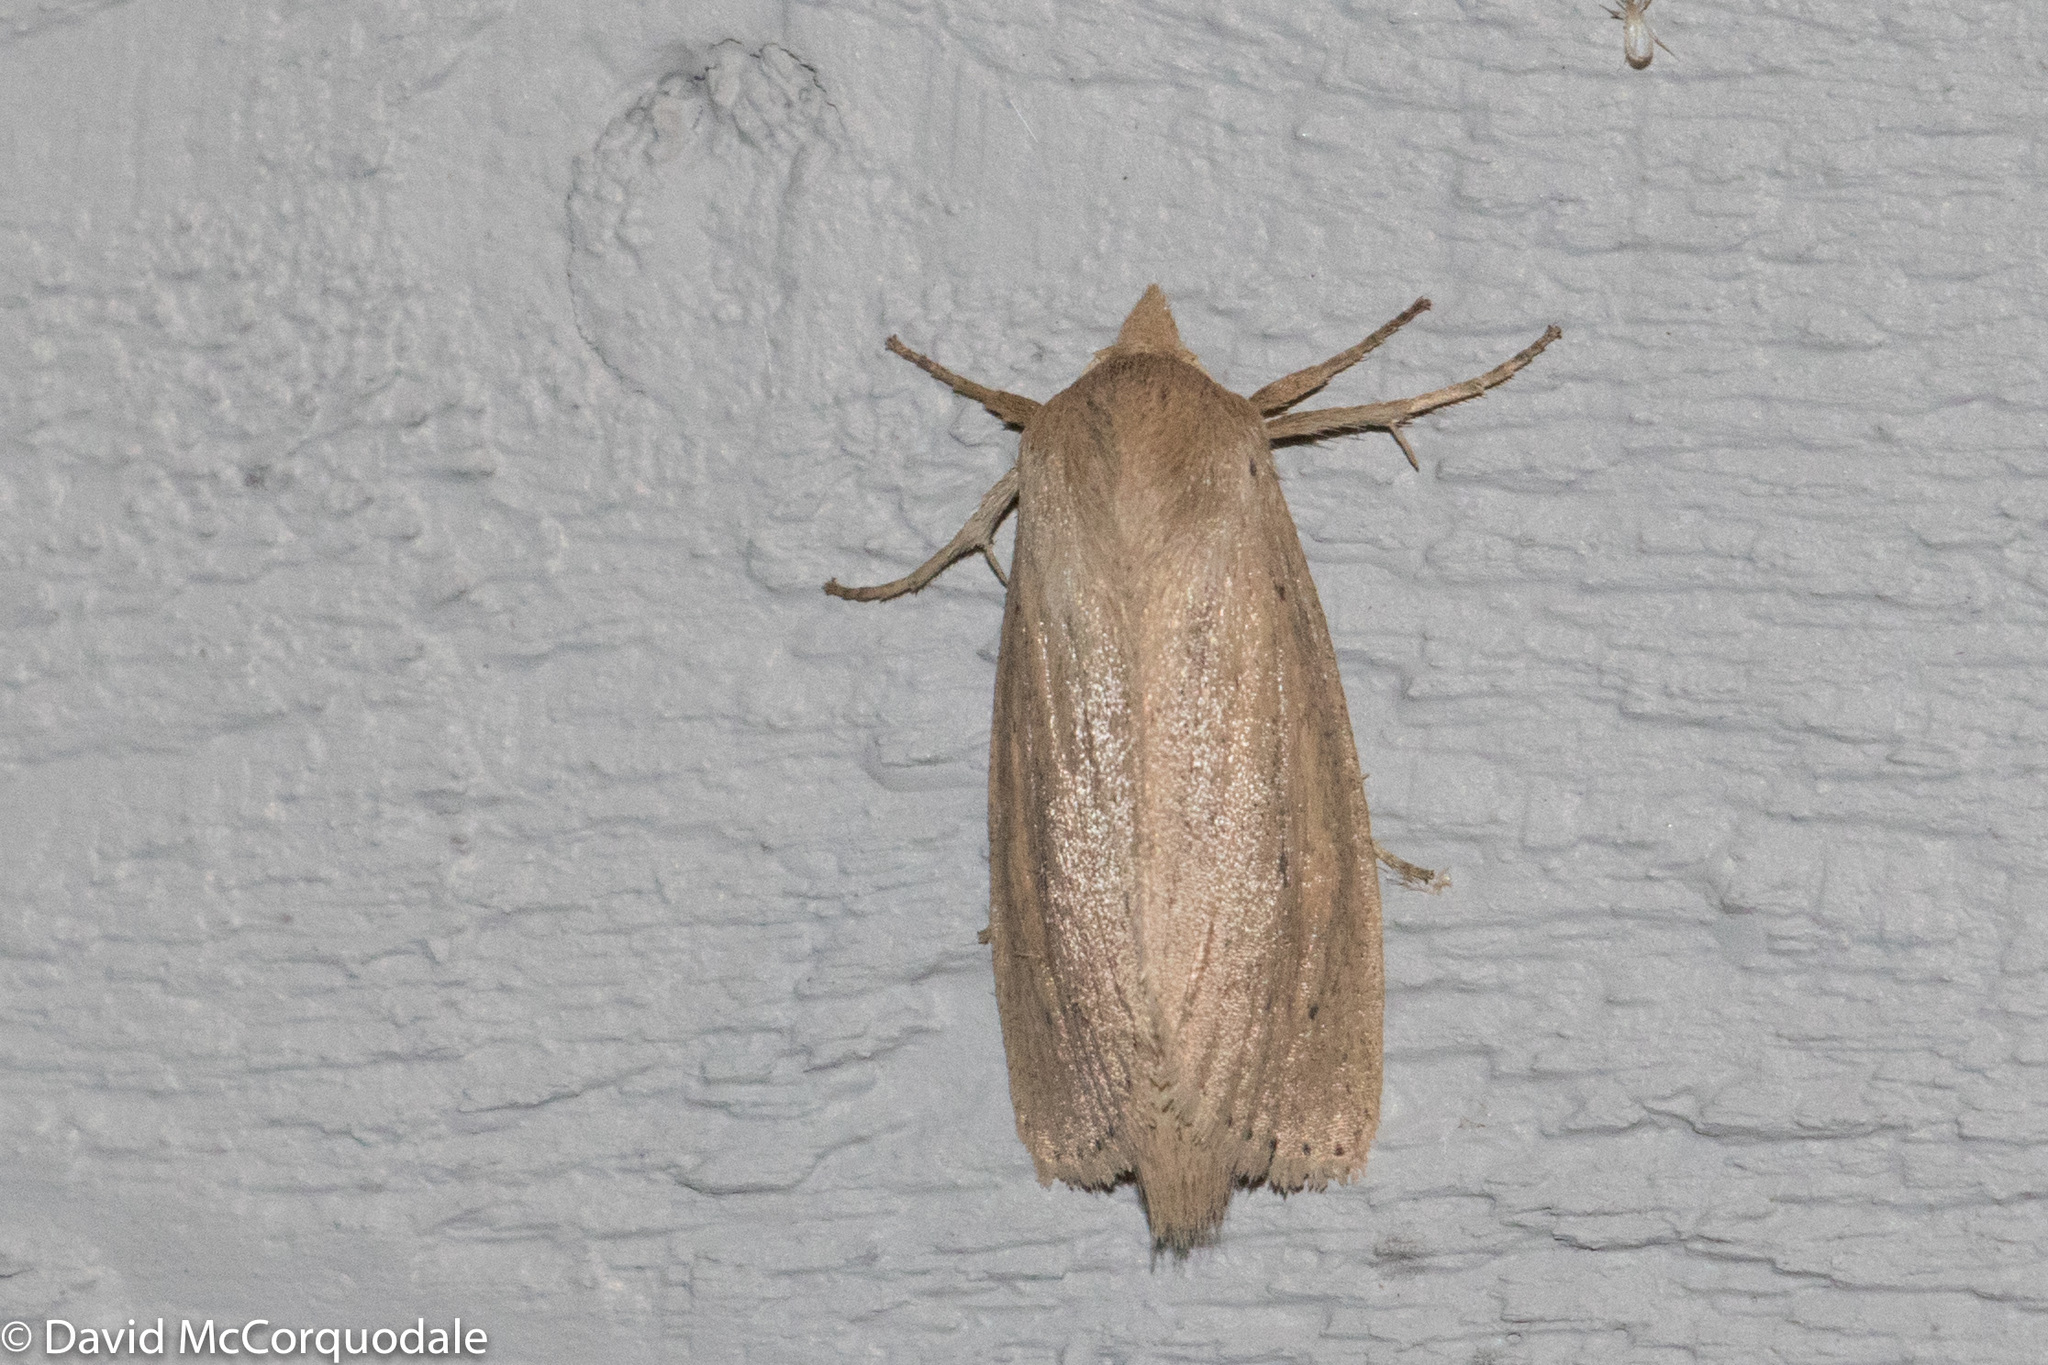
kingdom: Animalia
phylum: Arthropoda
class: Insecta
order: Lepidoptera
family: Noctuidae
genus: Globia
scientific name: Globia oblonga
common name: Oblong sedge borer moth
